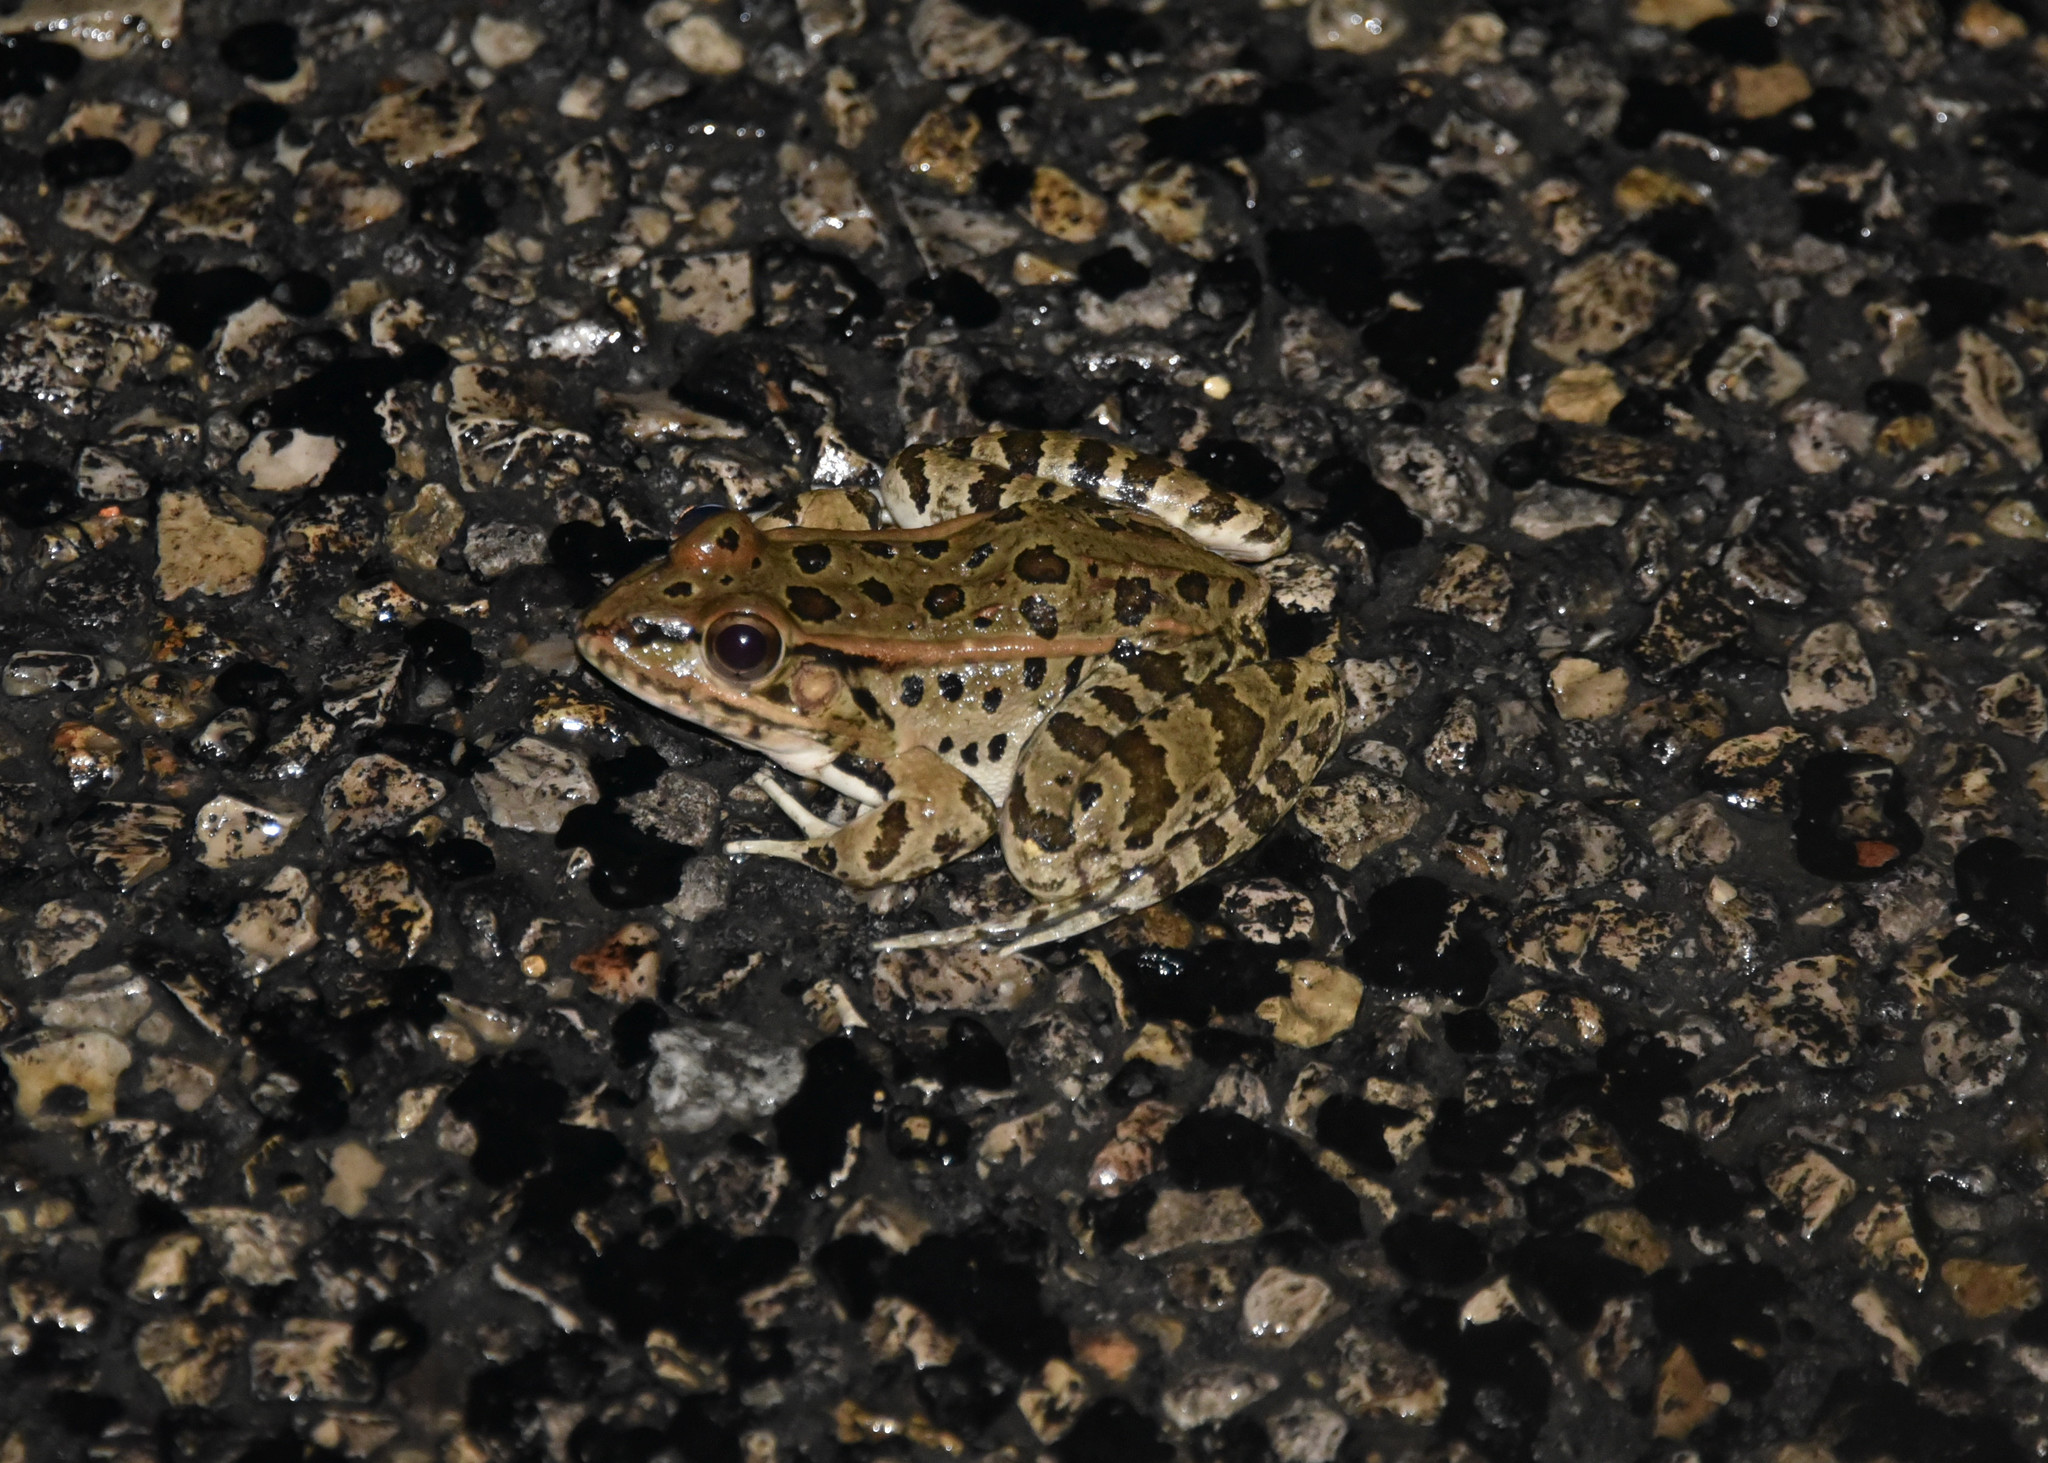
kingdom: Animalia
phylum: Chordata
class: Amphibia
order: Anura
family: Ranidae
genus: Lithobates
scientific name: Lithobates berlandieri
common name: Rio grande leopard frog
